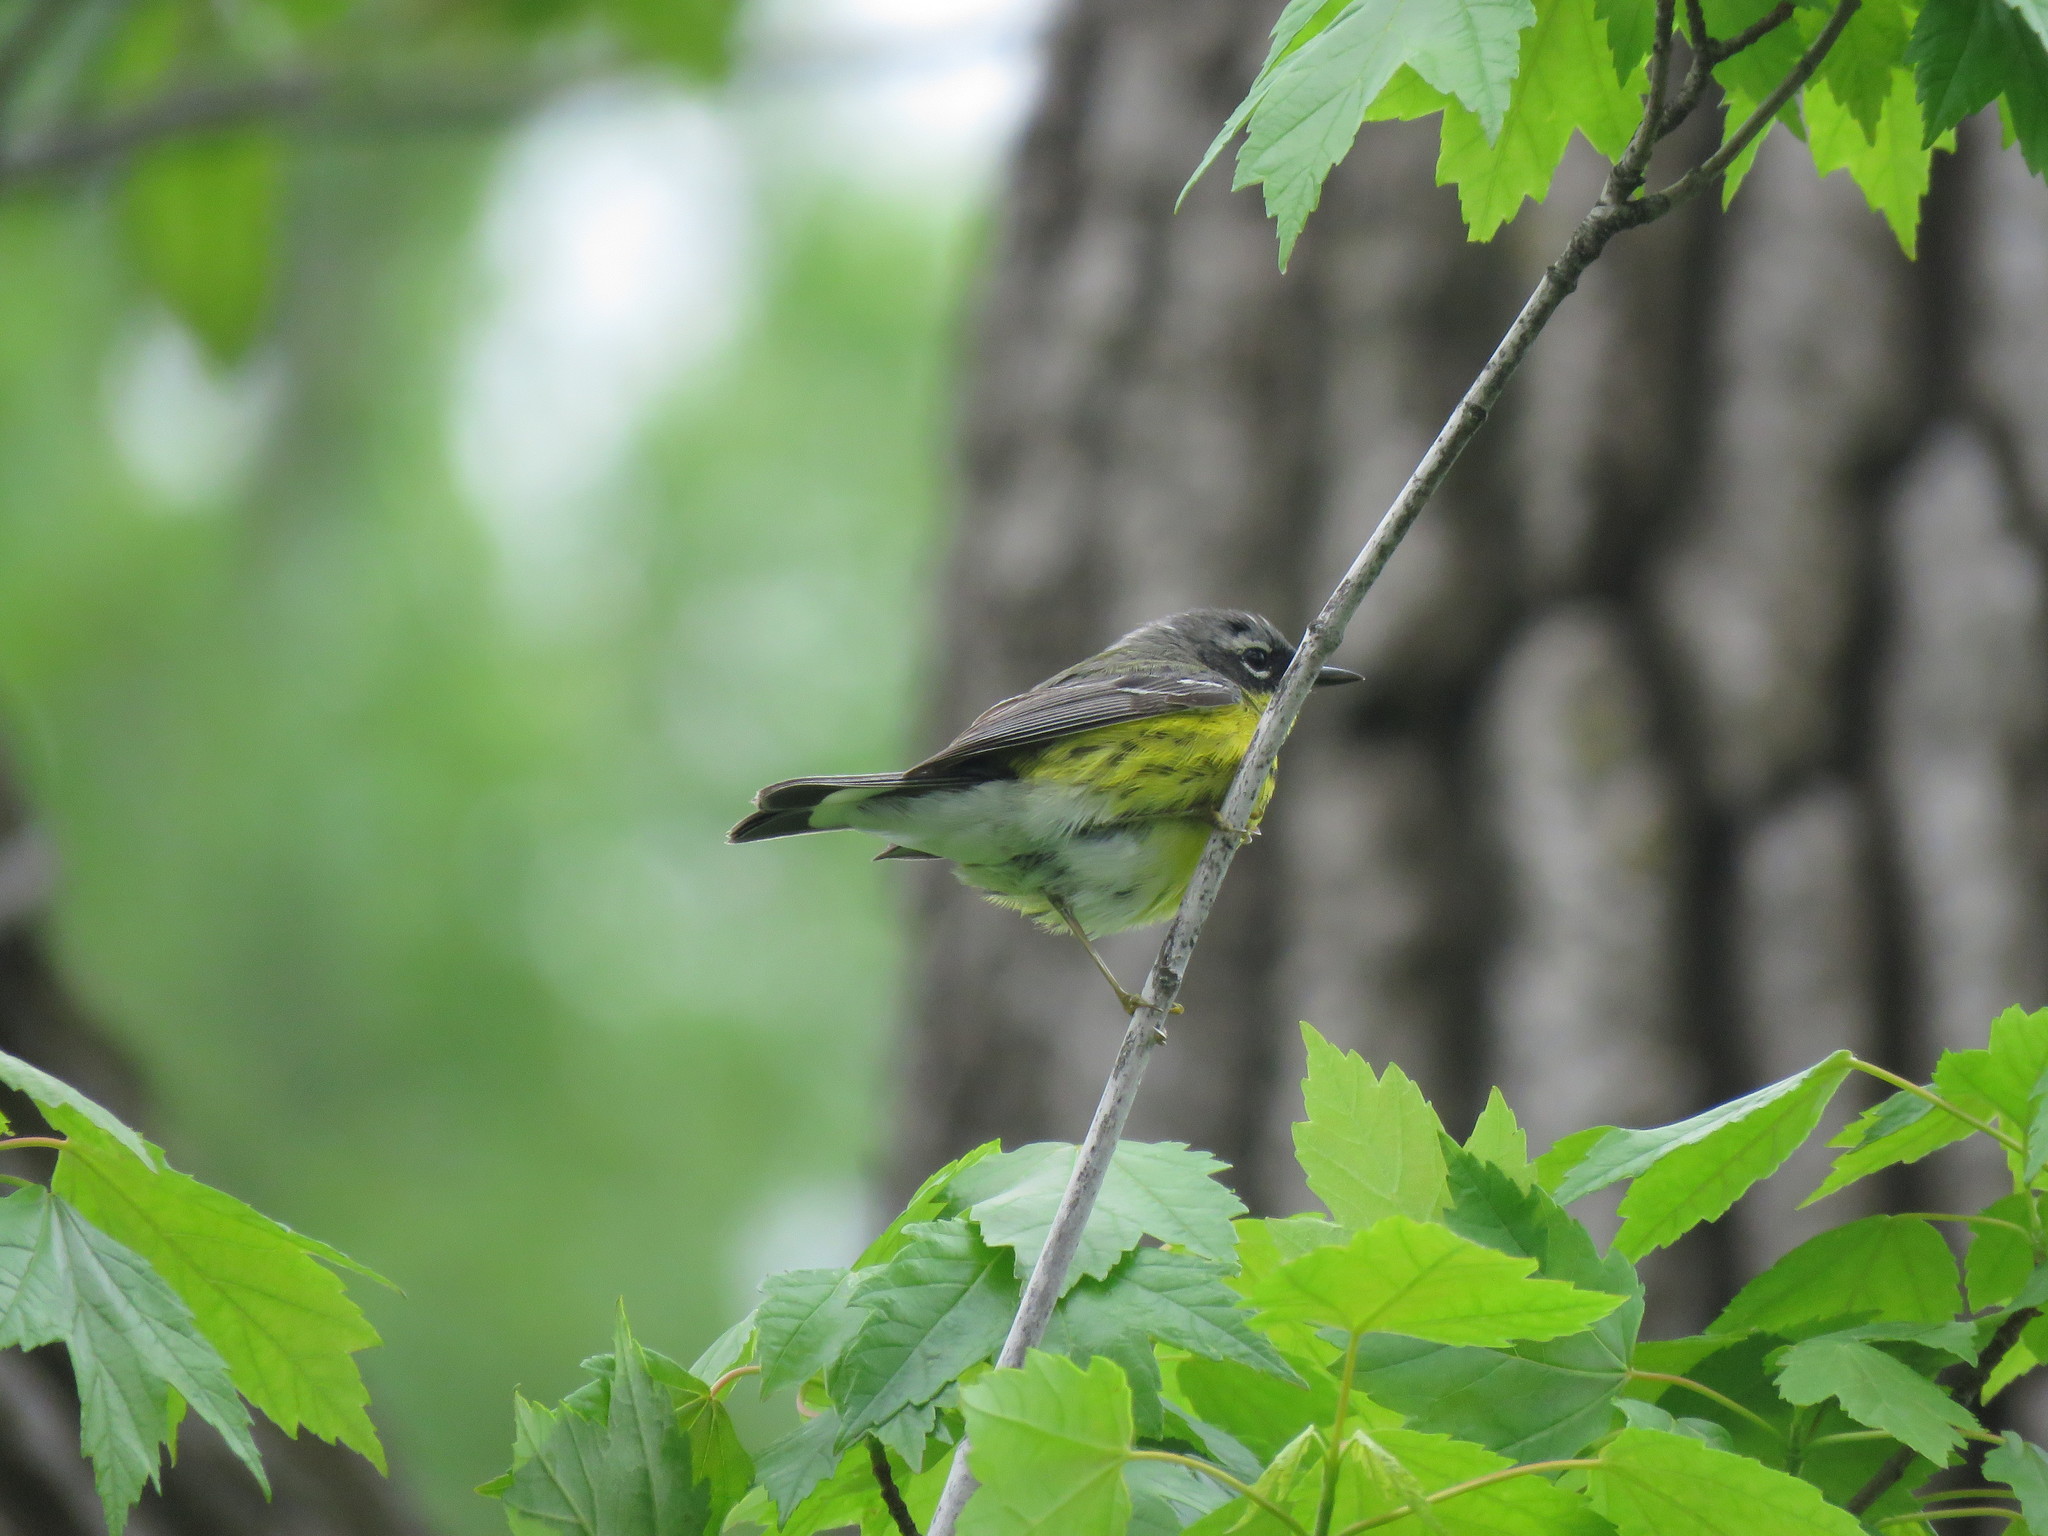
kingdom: Animalia
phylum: Chordata
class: Aves
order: Passeriformes
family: Parulidae
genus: Setophaga
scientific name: Setophaga magnolia
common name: Magnolia warbler
